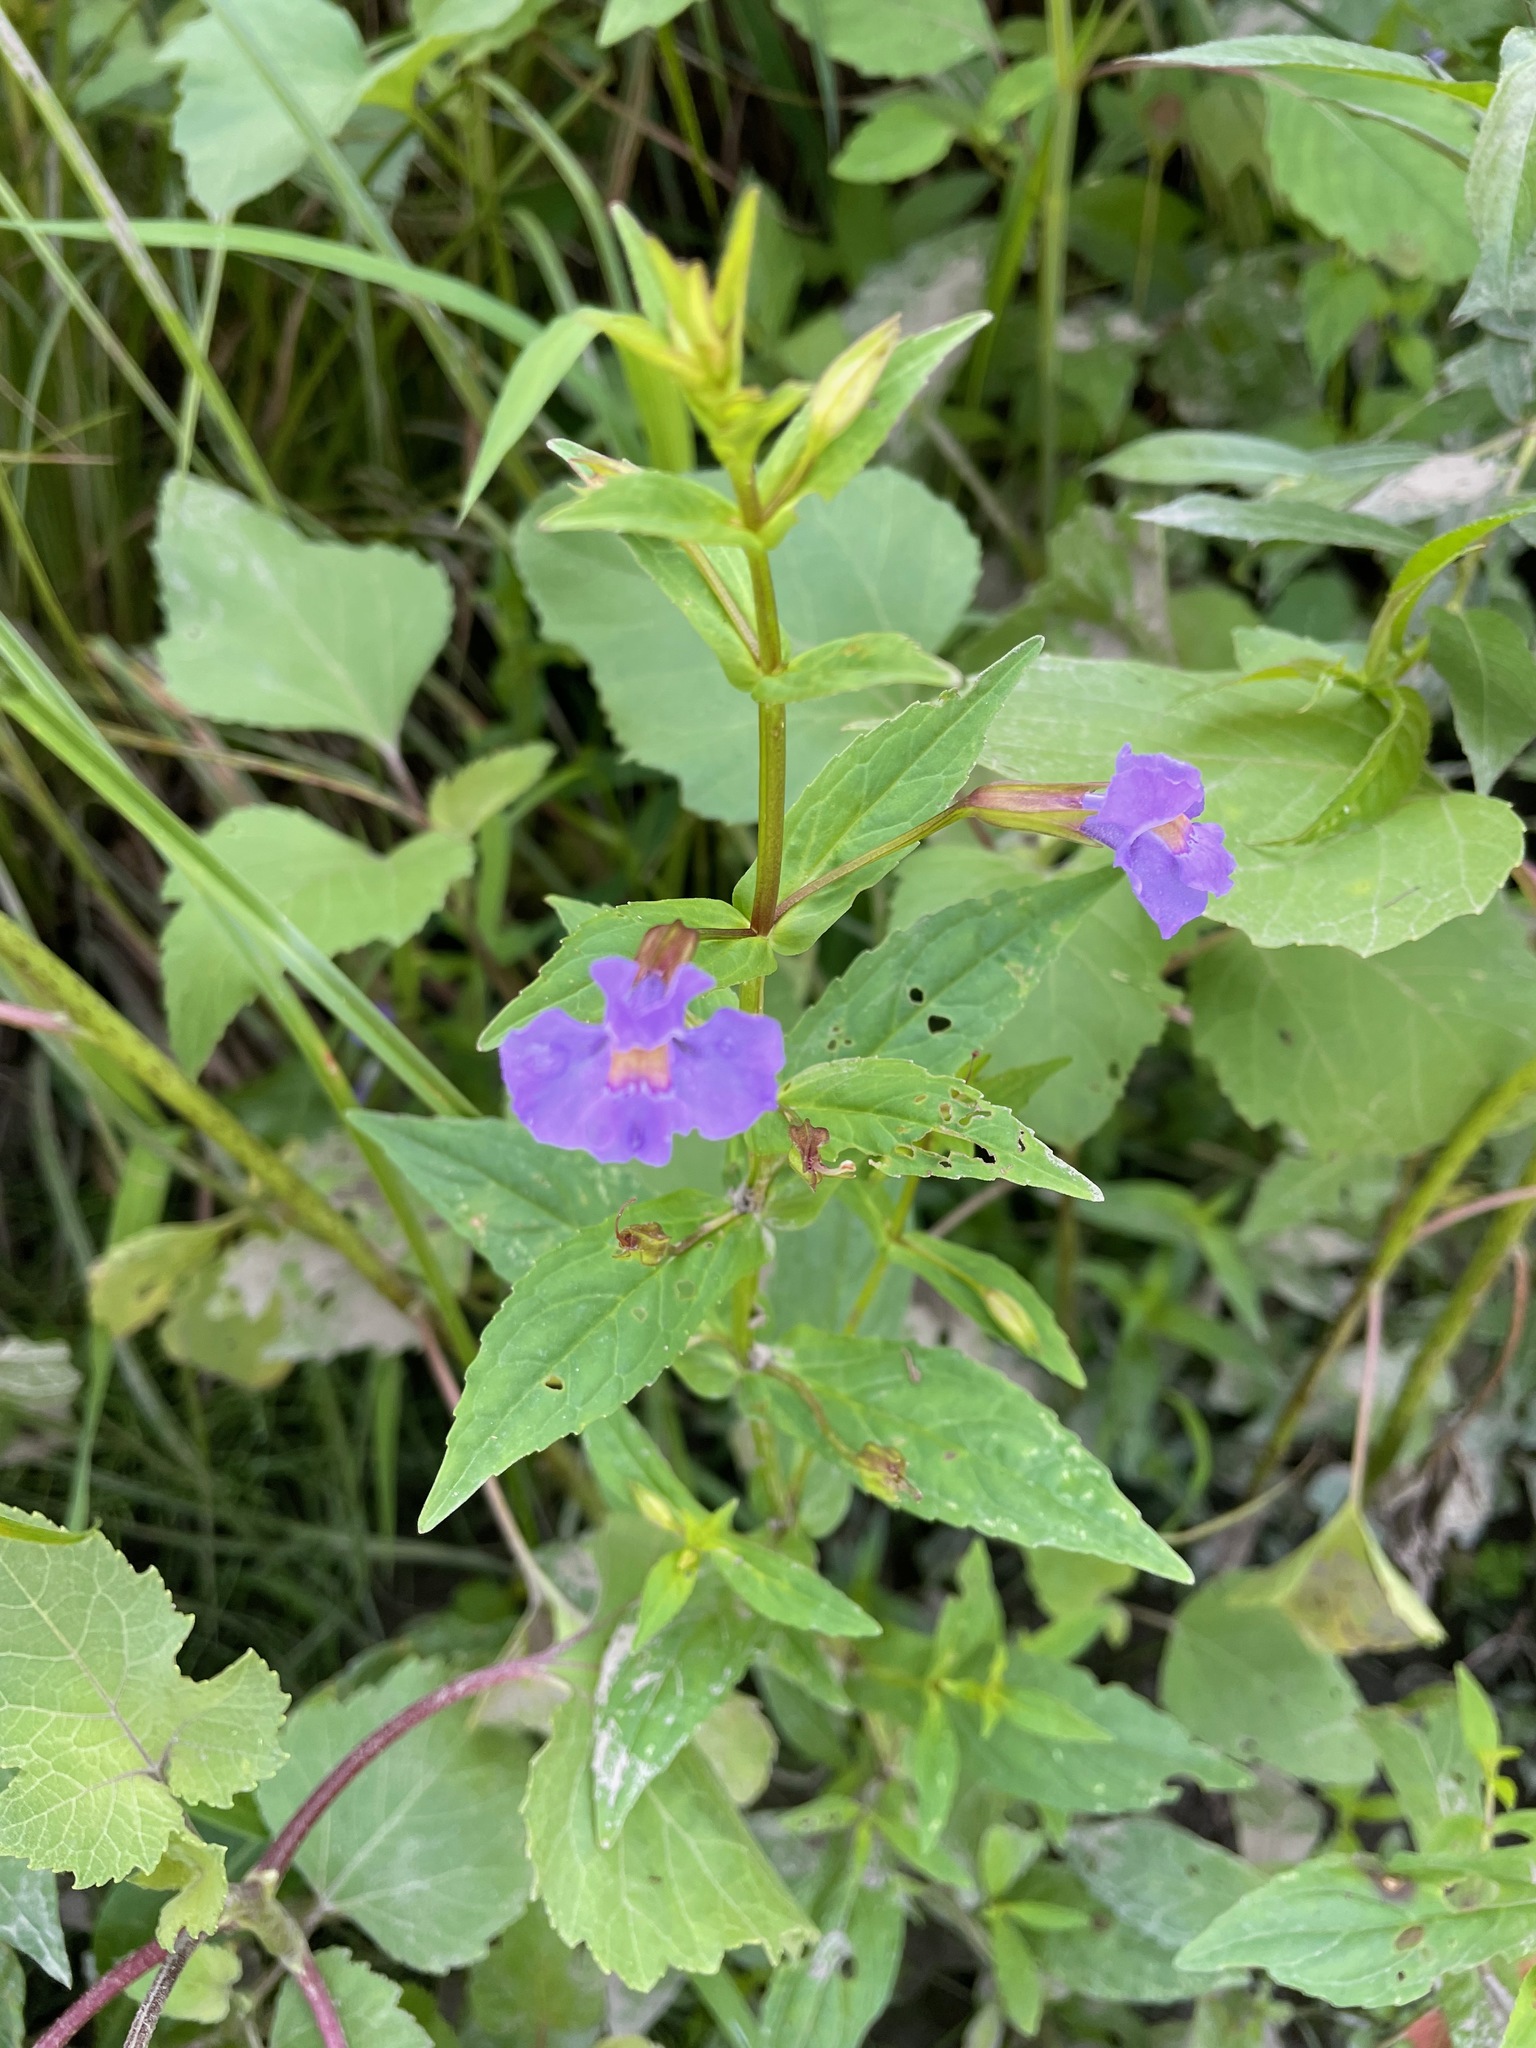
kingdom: Plantae
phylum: Tracheophyta
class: Magnoliopsida
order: Lamiales
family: Phrymaceae
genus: Mimulus
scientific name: Mimulus ringens
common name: Allegheny monkeyflower
